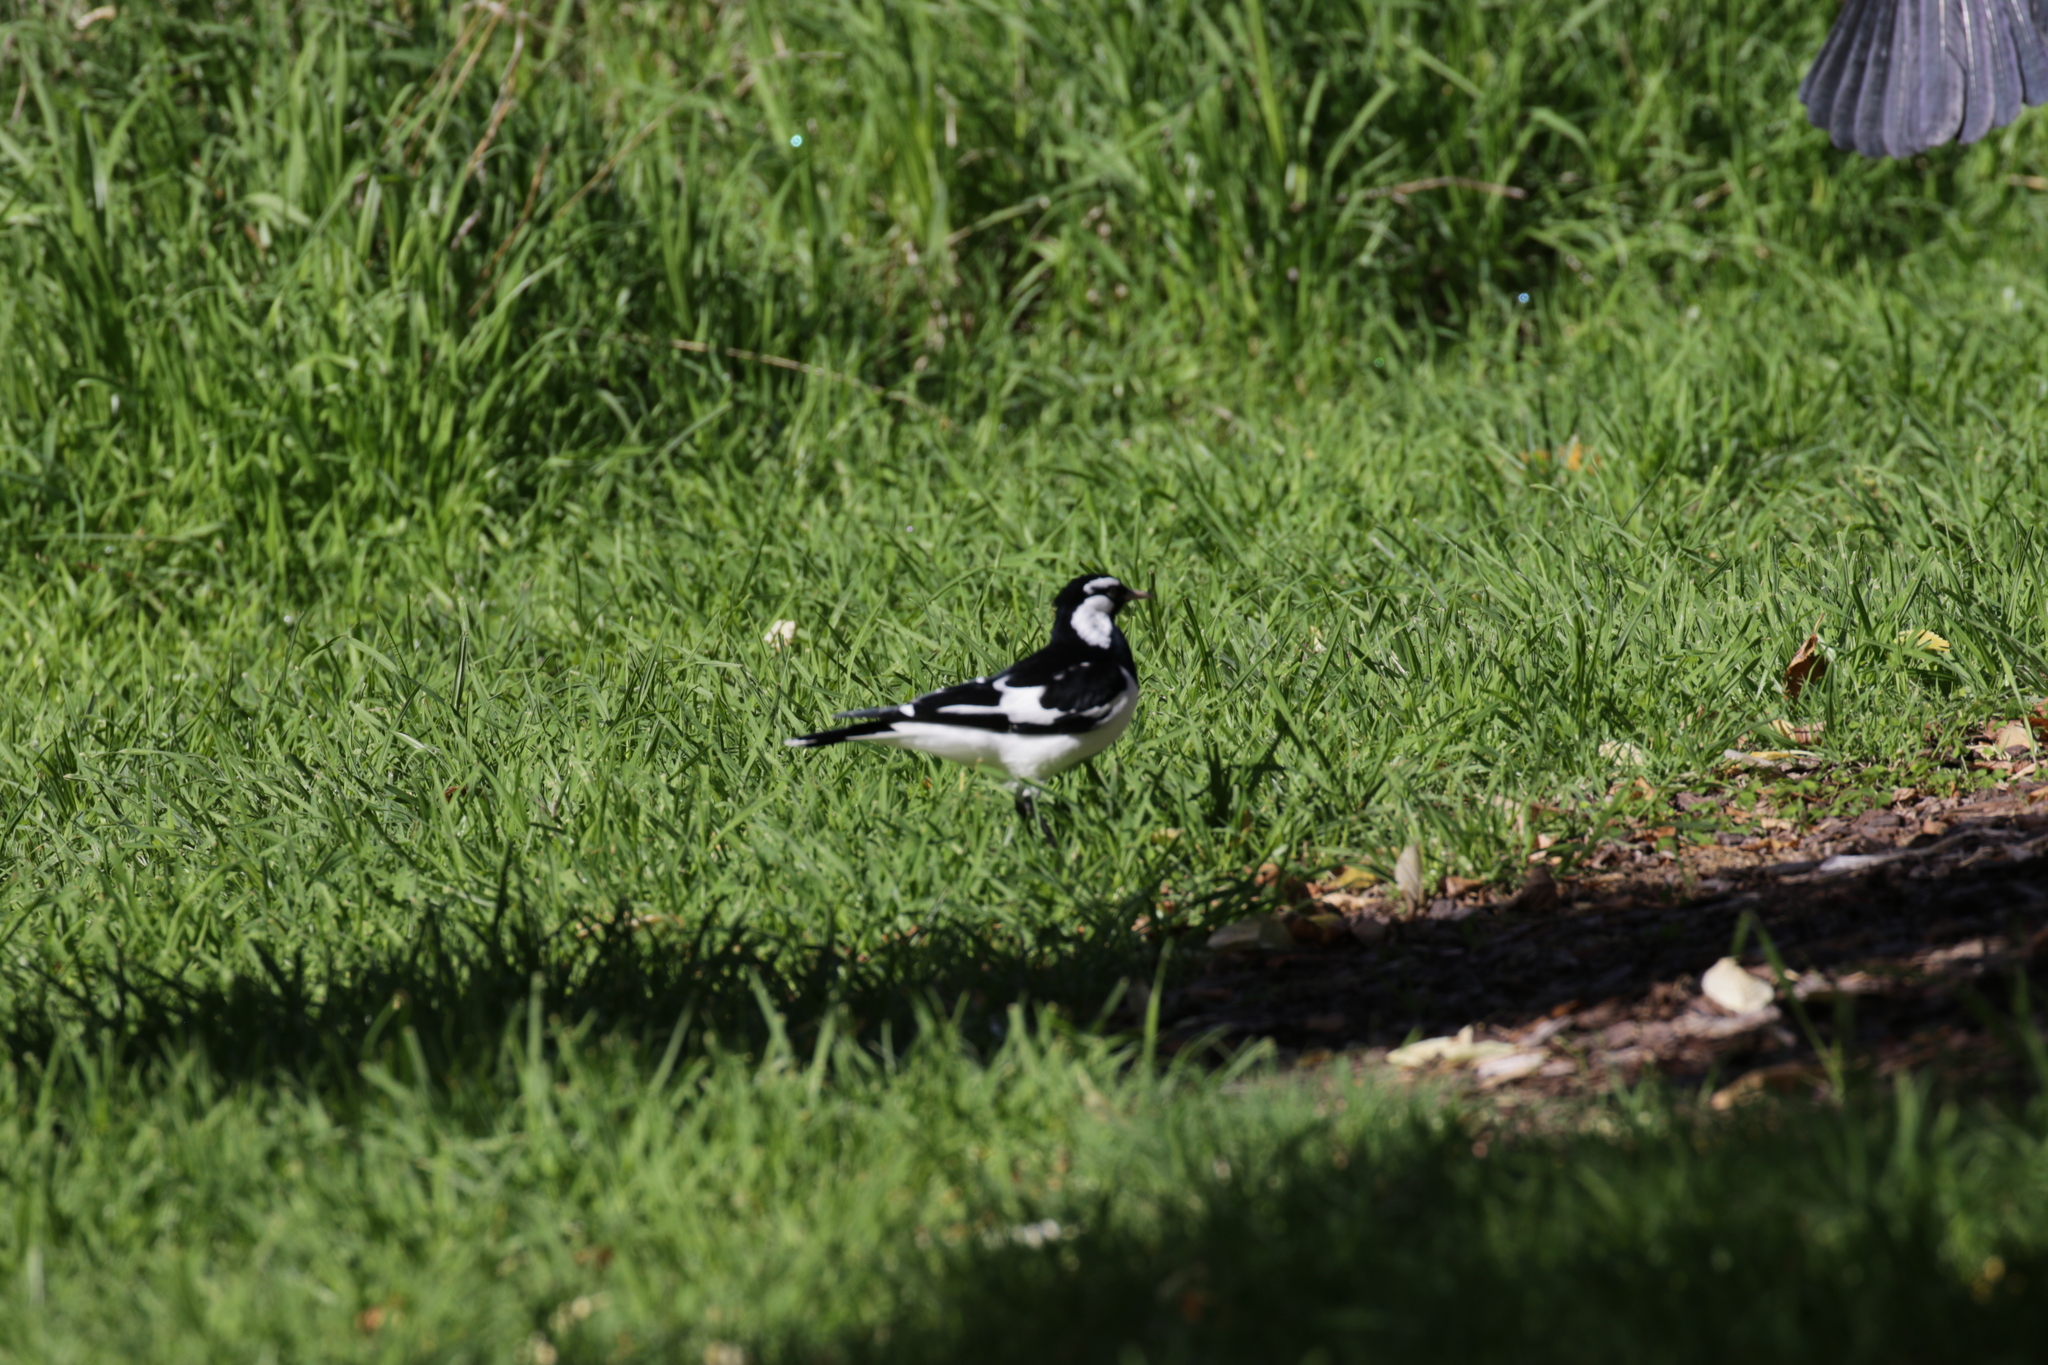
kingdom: Animalia
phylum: Chordata
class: Aves
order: Passeriformes
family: Monarchidae
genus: Grallina
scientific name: Grallina cyanoleuca
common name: Magpie-lark
